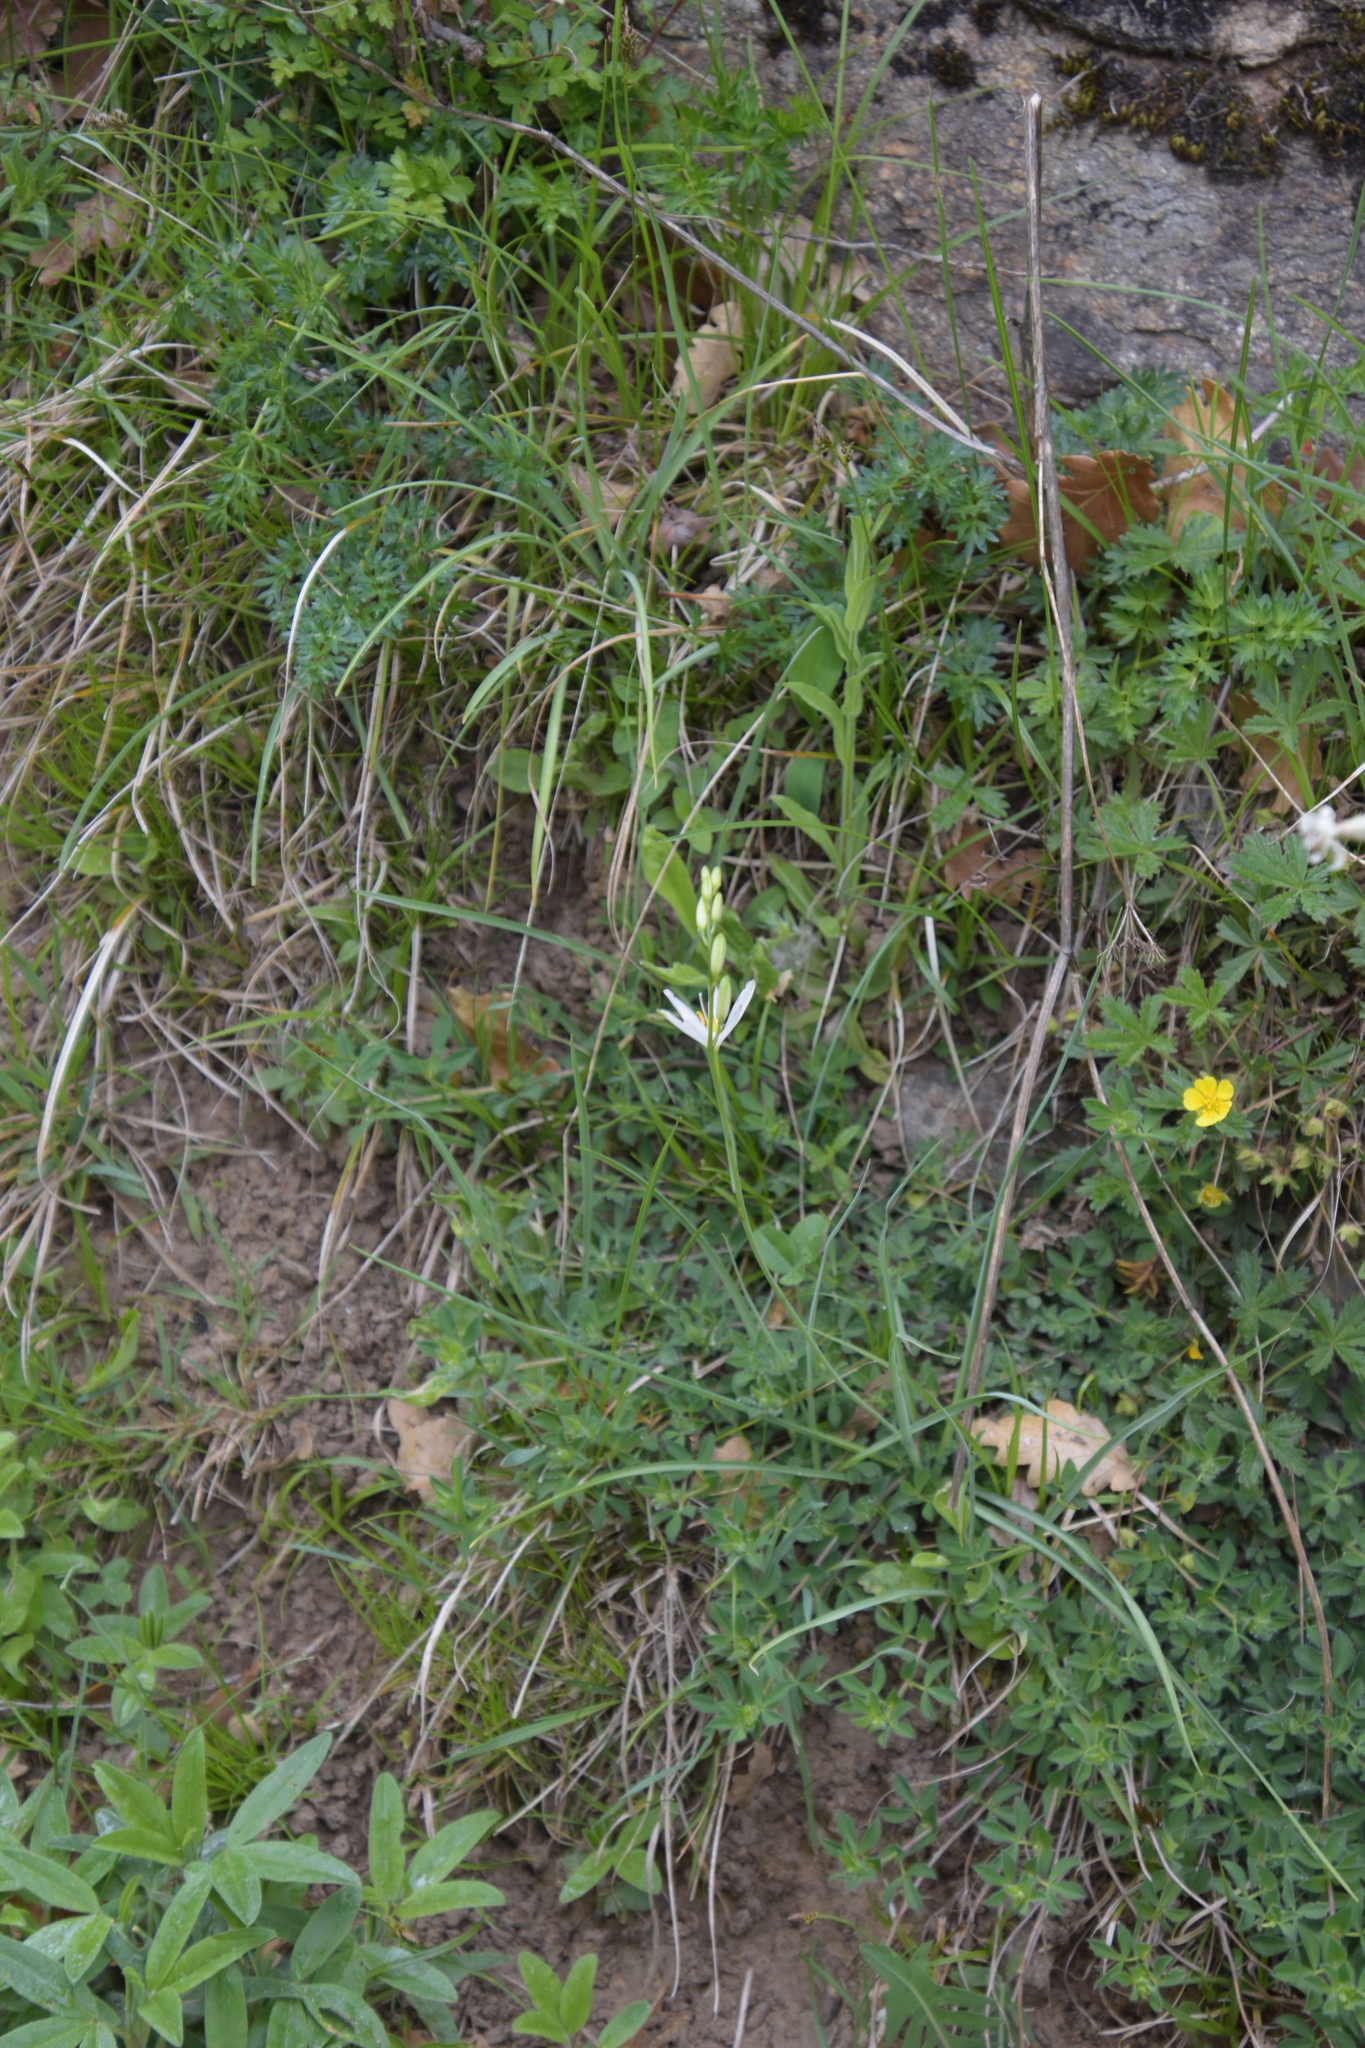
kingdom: Plantae
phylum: Tracheophyta
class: Liliopsida
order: Asparagales
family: Asparagaceae
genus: Anthericum
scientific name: Anthericum liliago
